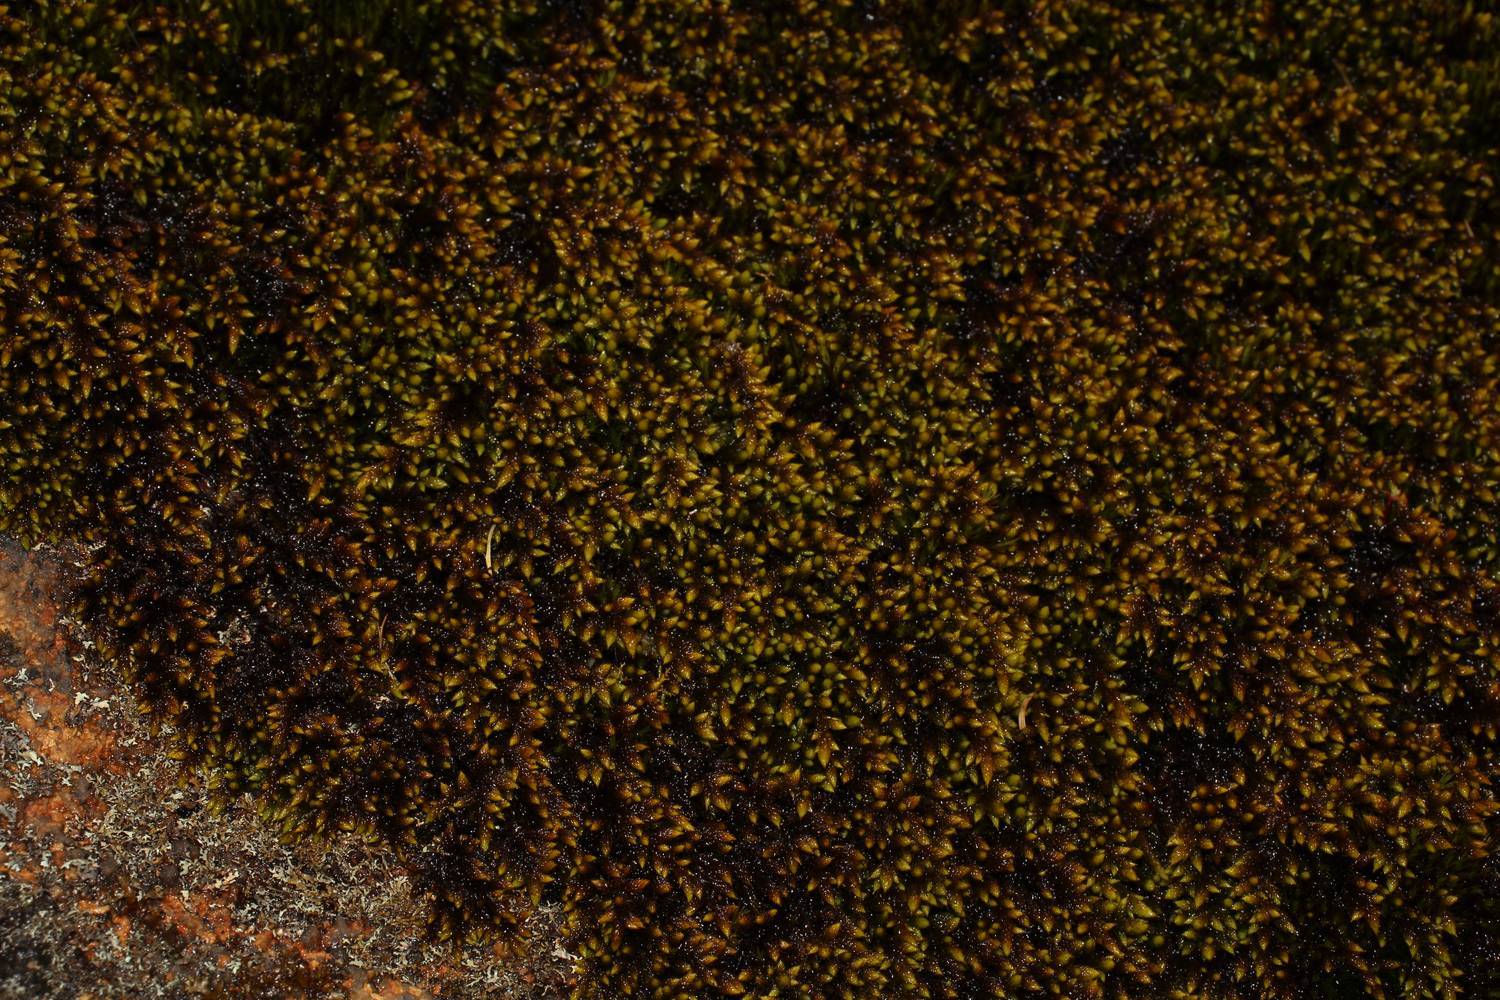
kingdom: Plantae
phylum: Bryophyta
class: Bryopsida
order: Hedwigiales
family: Hedwigiaceae
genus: Rhacocarpus
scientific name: Rhacocarpus purpurascens
